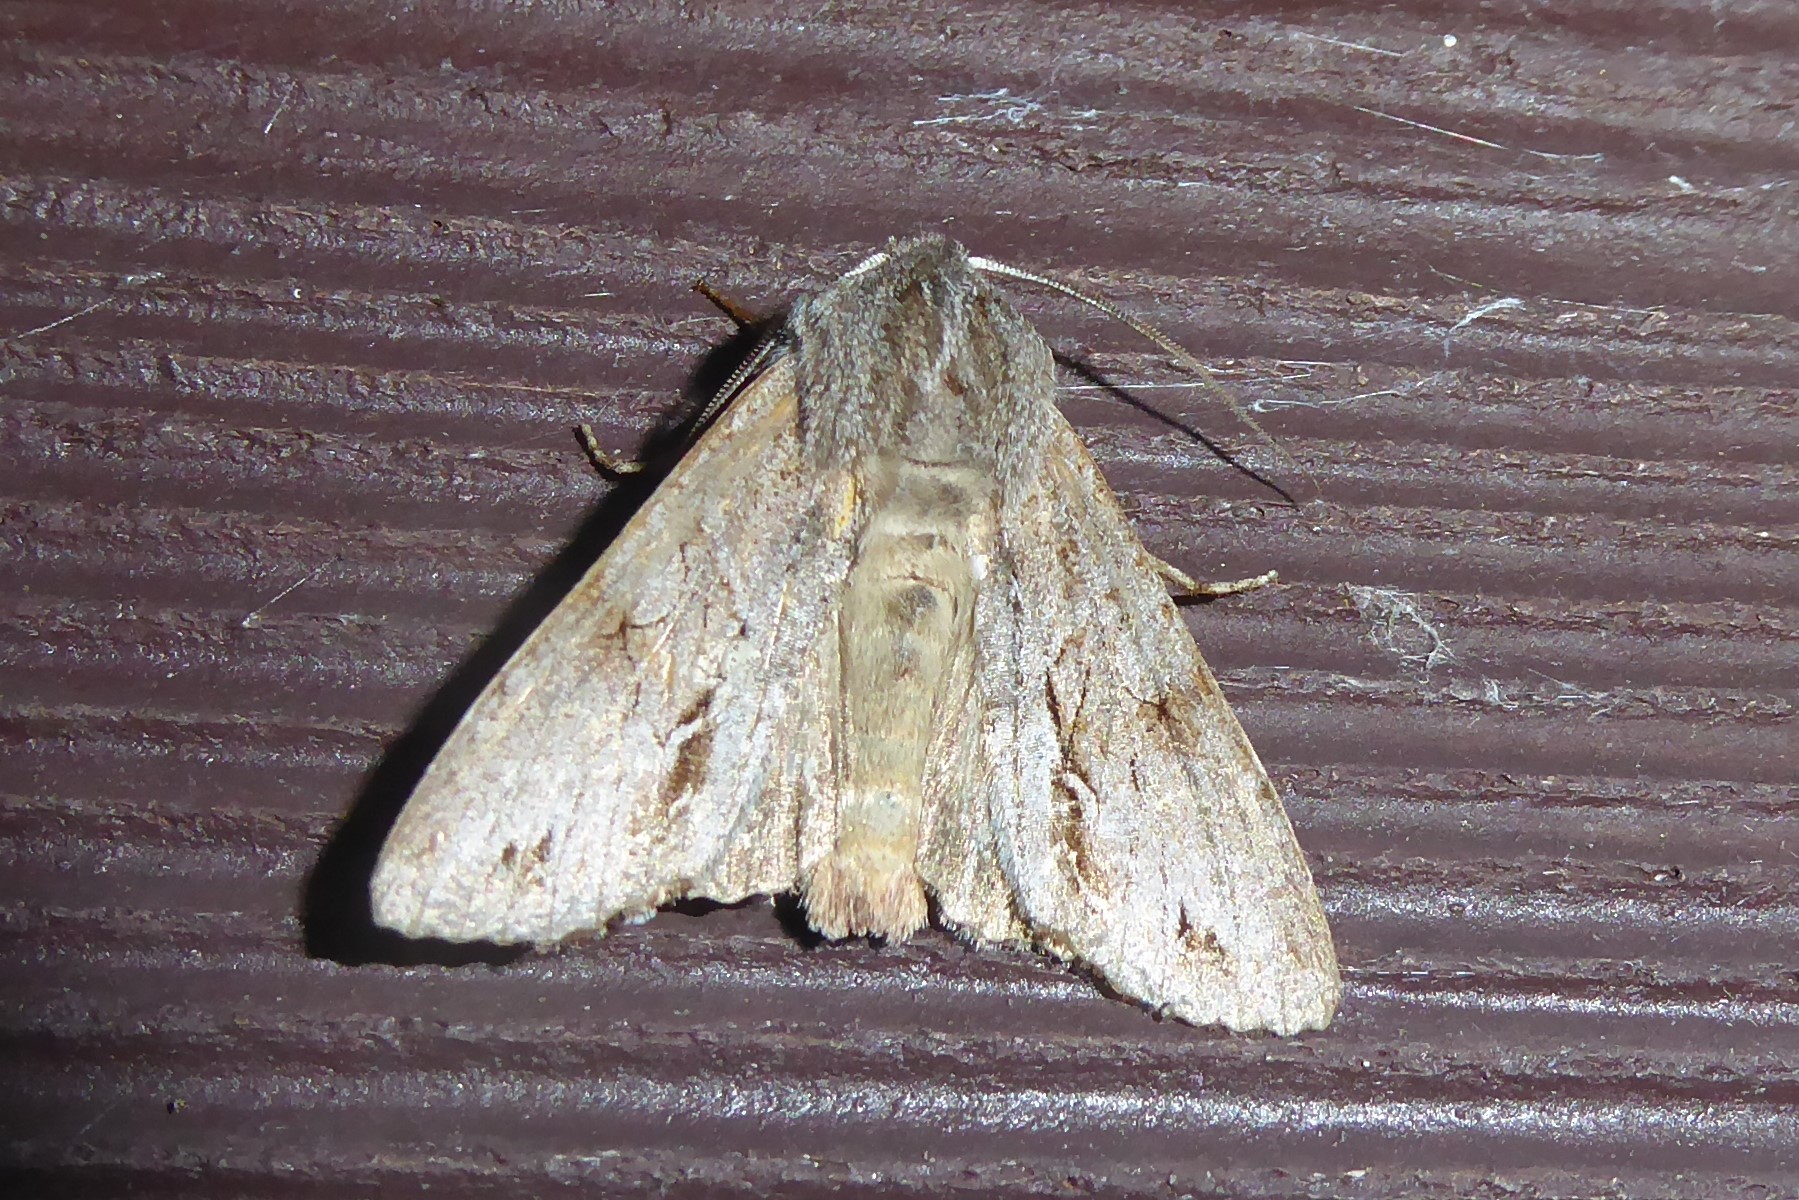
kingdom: Animalia
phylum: Arthropoda
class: Insecta
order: Lepidoptera
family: Noctuidae
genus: Ichneutica
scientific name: Ichneutica
